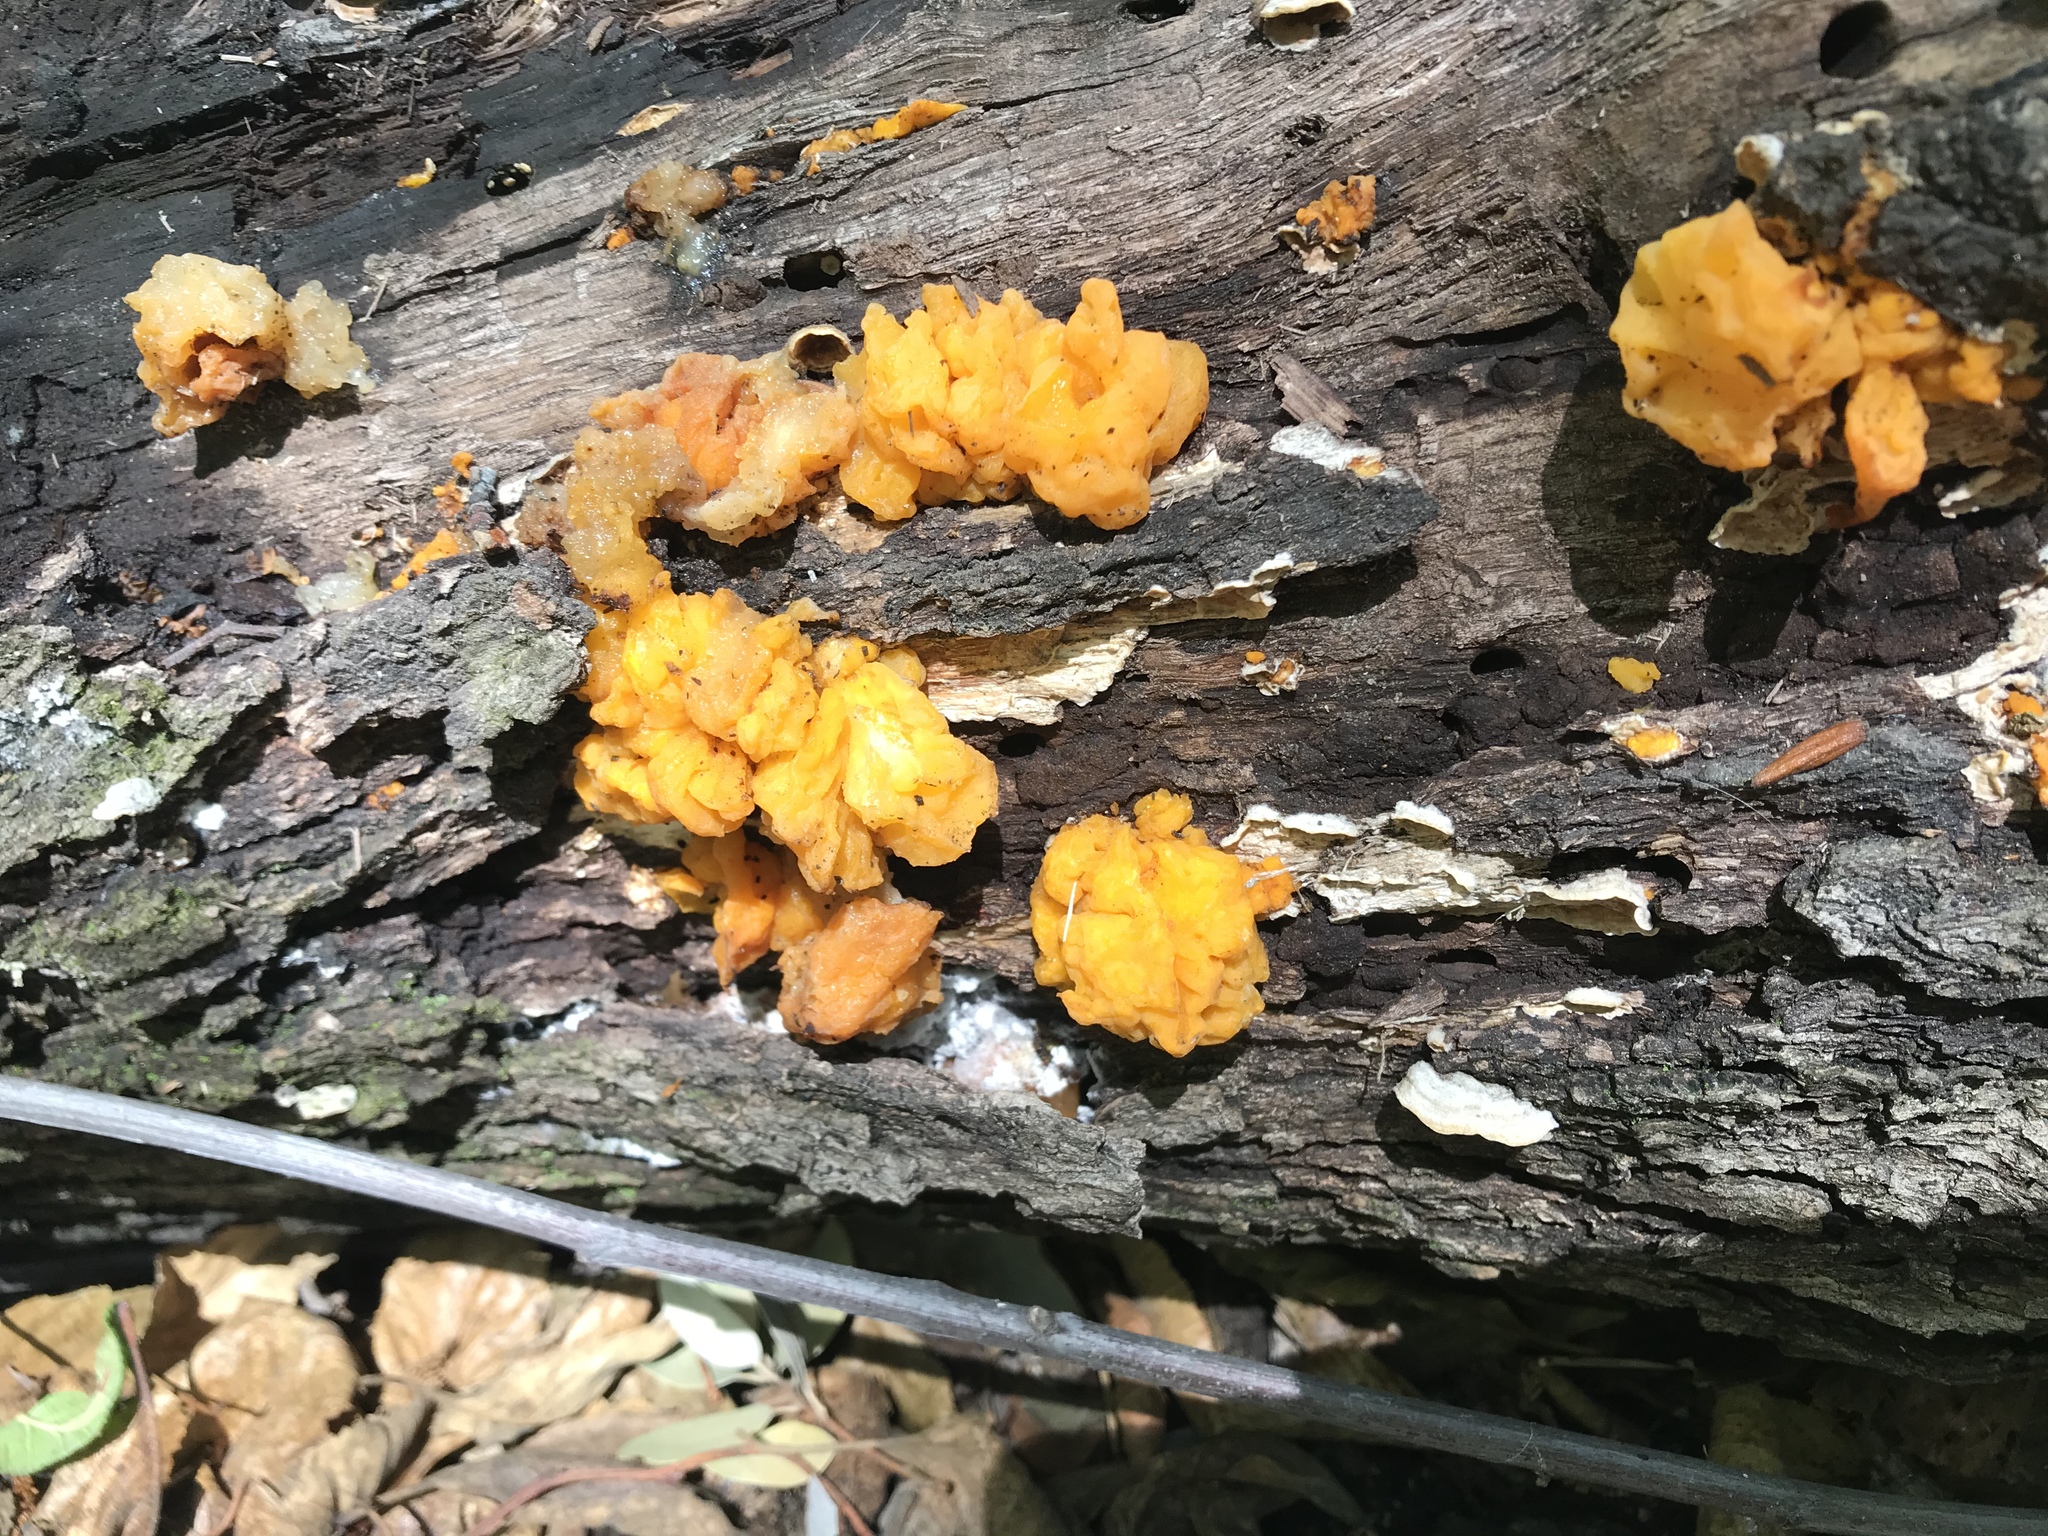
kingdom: Fungi
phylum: Basidiomycota
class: Tremellomycetes
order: Tremellales
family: Naemateliaceae
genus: Naematelia
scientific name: Naematelia aurantia
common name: Golden ear
